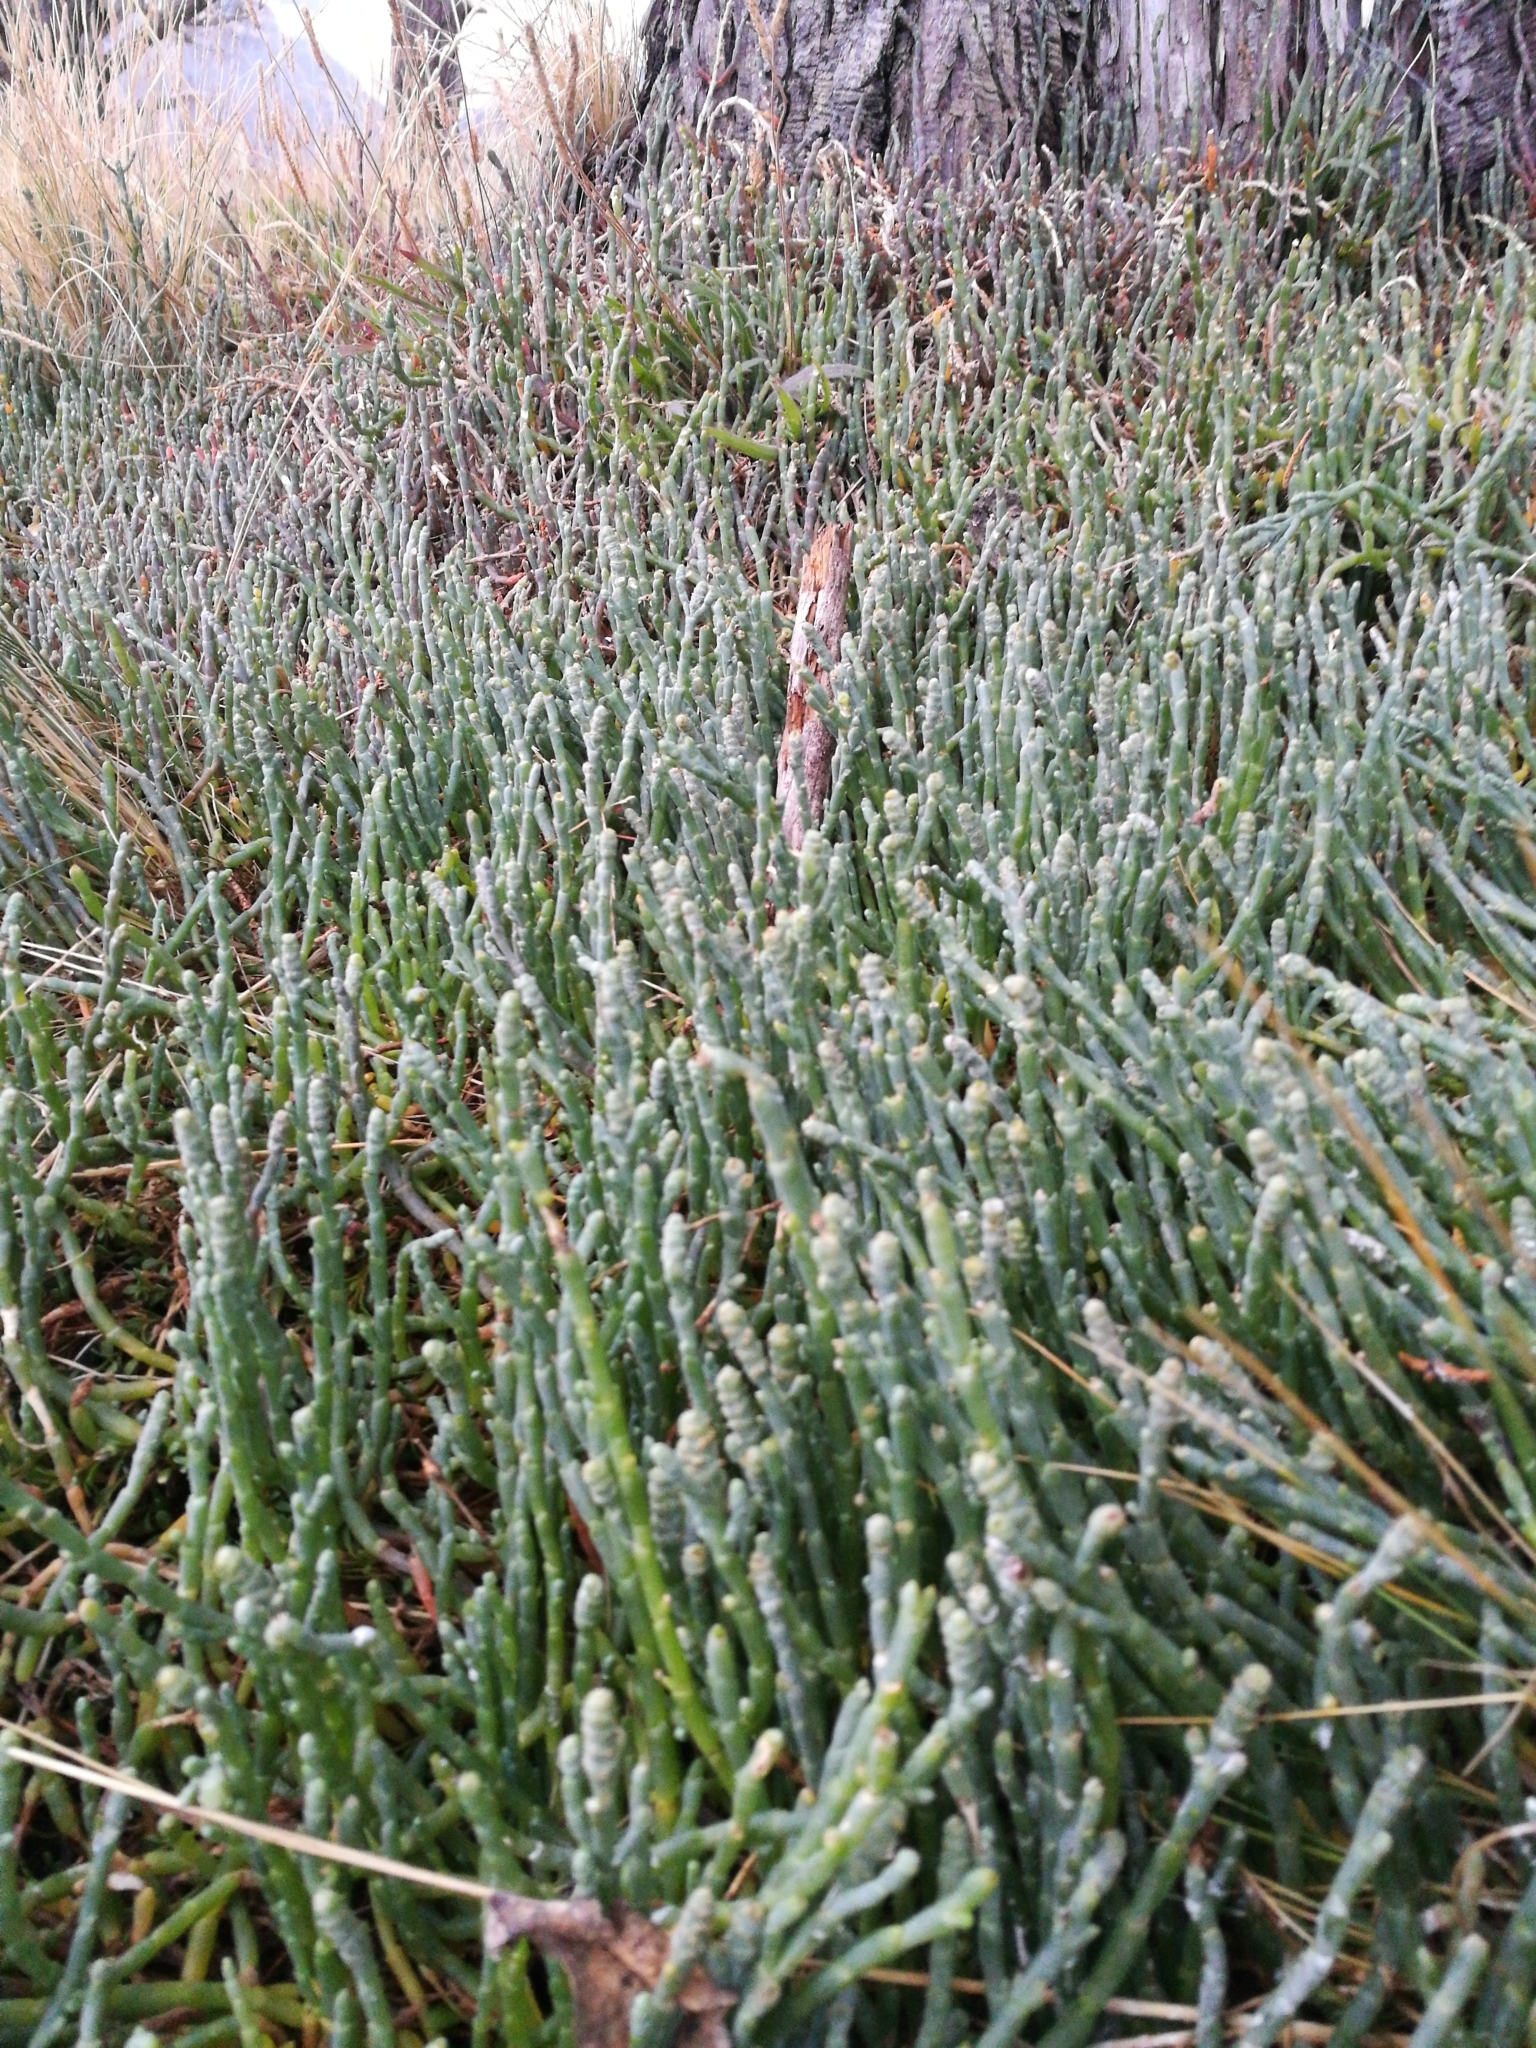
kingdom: Plantae
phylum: Tracheophyta
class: Magnoliopsida
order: Caryophyllales
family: Amaranthaceae
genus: Salicornia
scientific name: Salicornia quinqueflora
